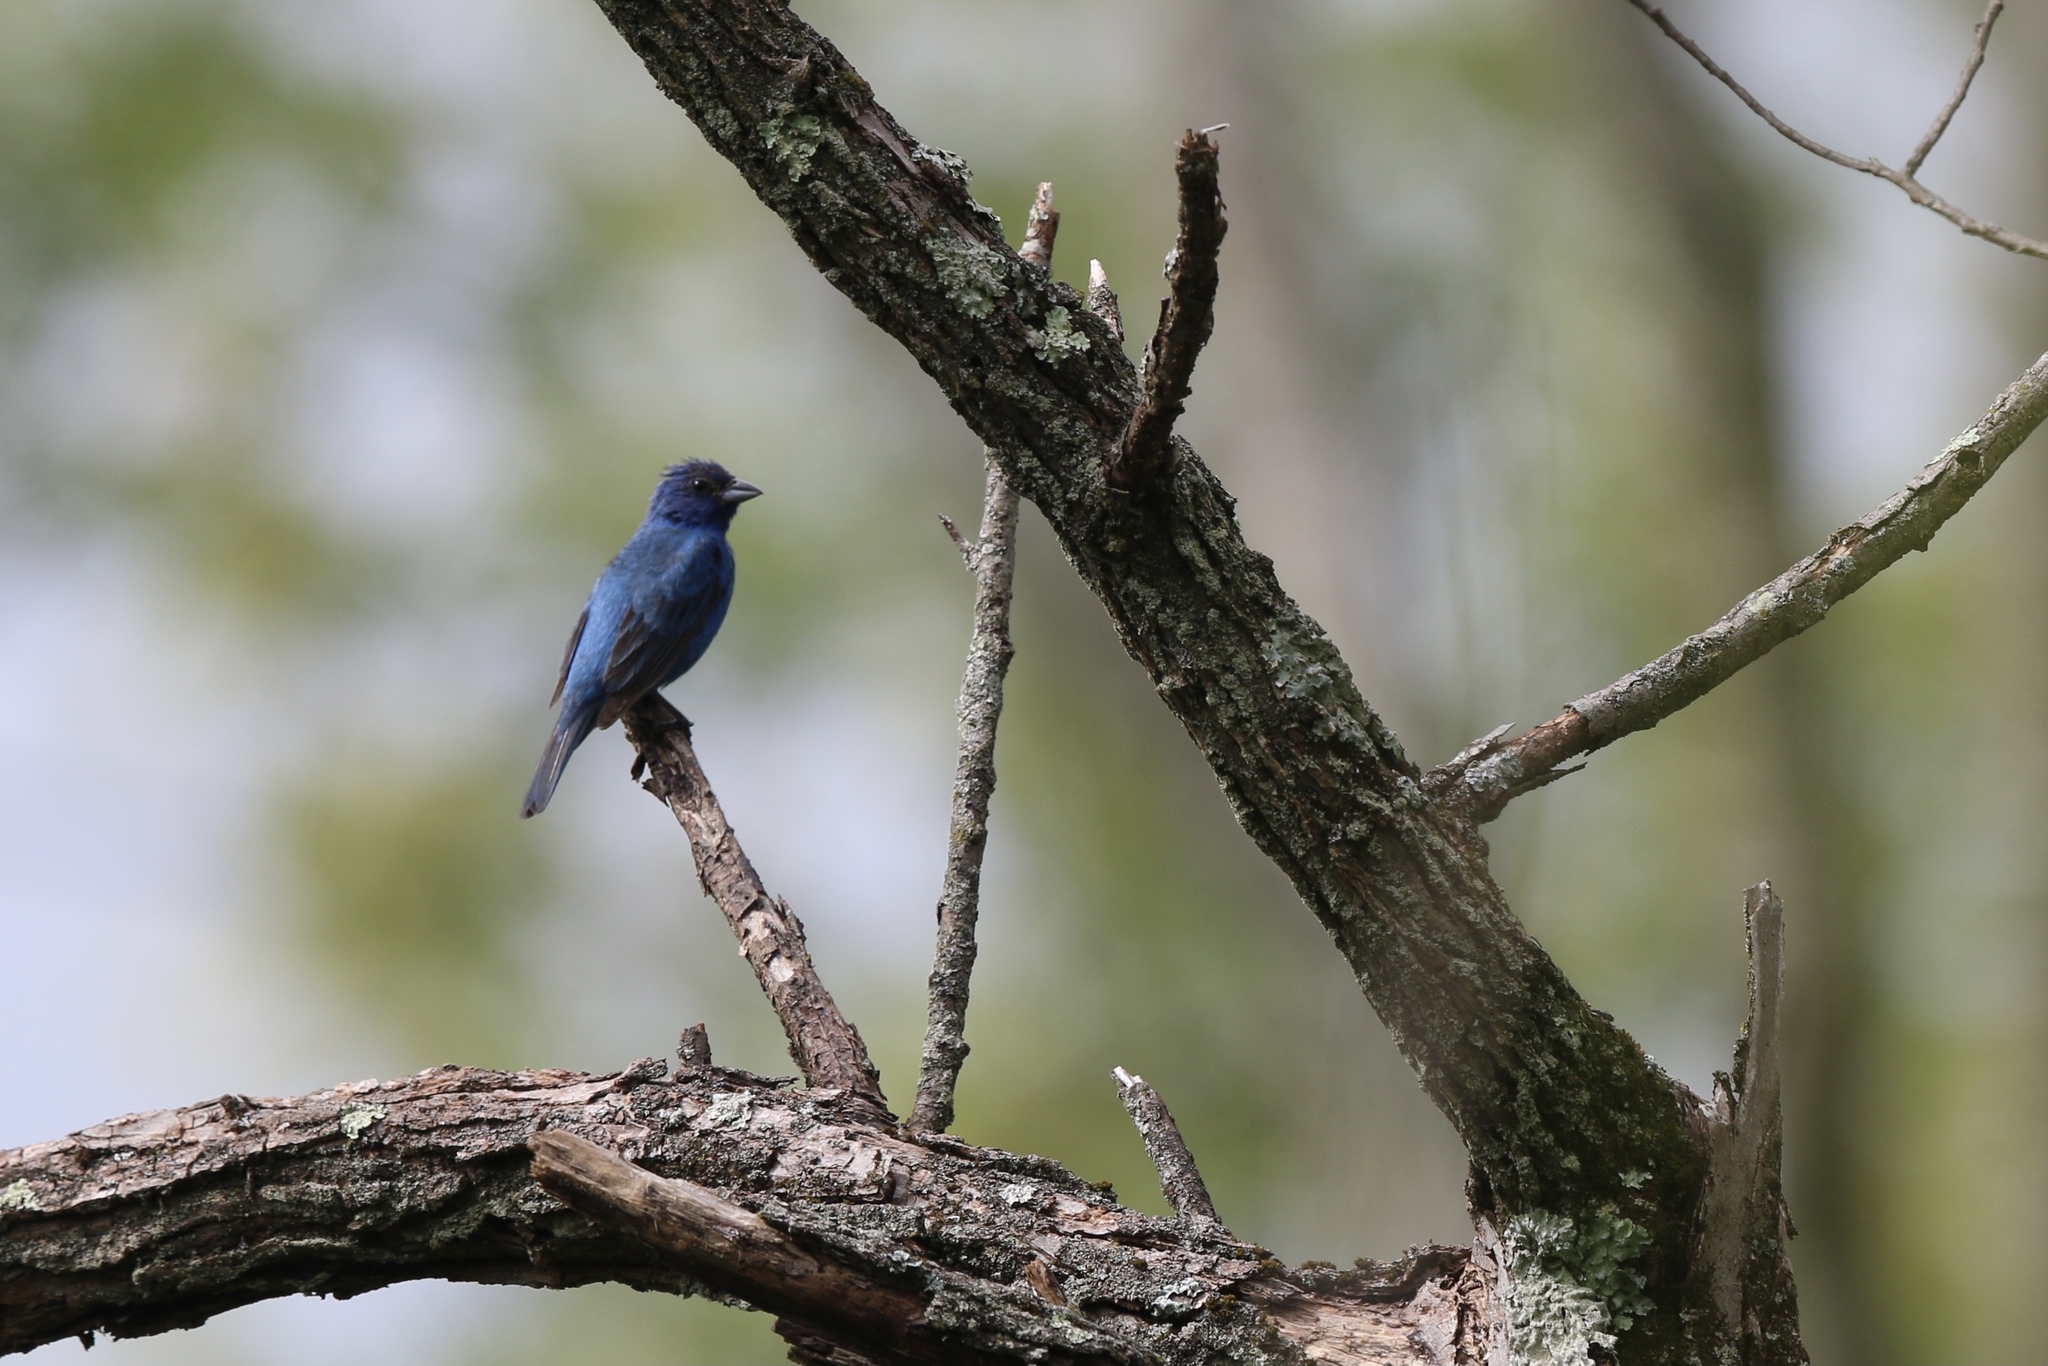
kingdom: Animalia
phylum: Chordata
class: Aves
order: Passeriformes
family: Cardinalidae
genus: Passerina
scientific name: Passerina cyanea
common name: Indigo bunting
